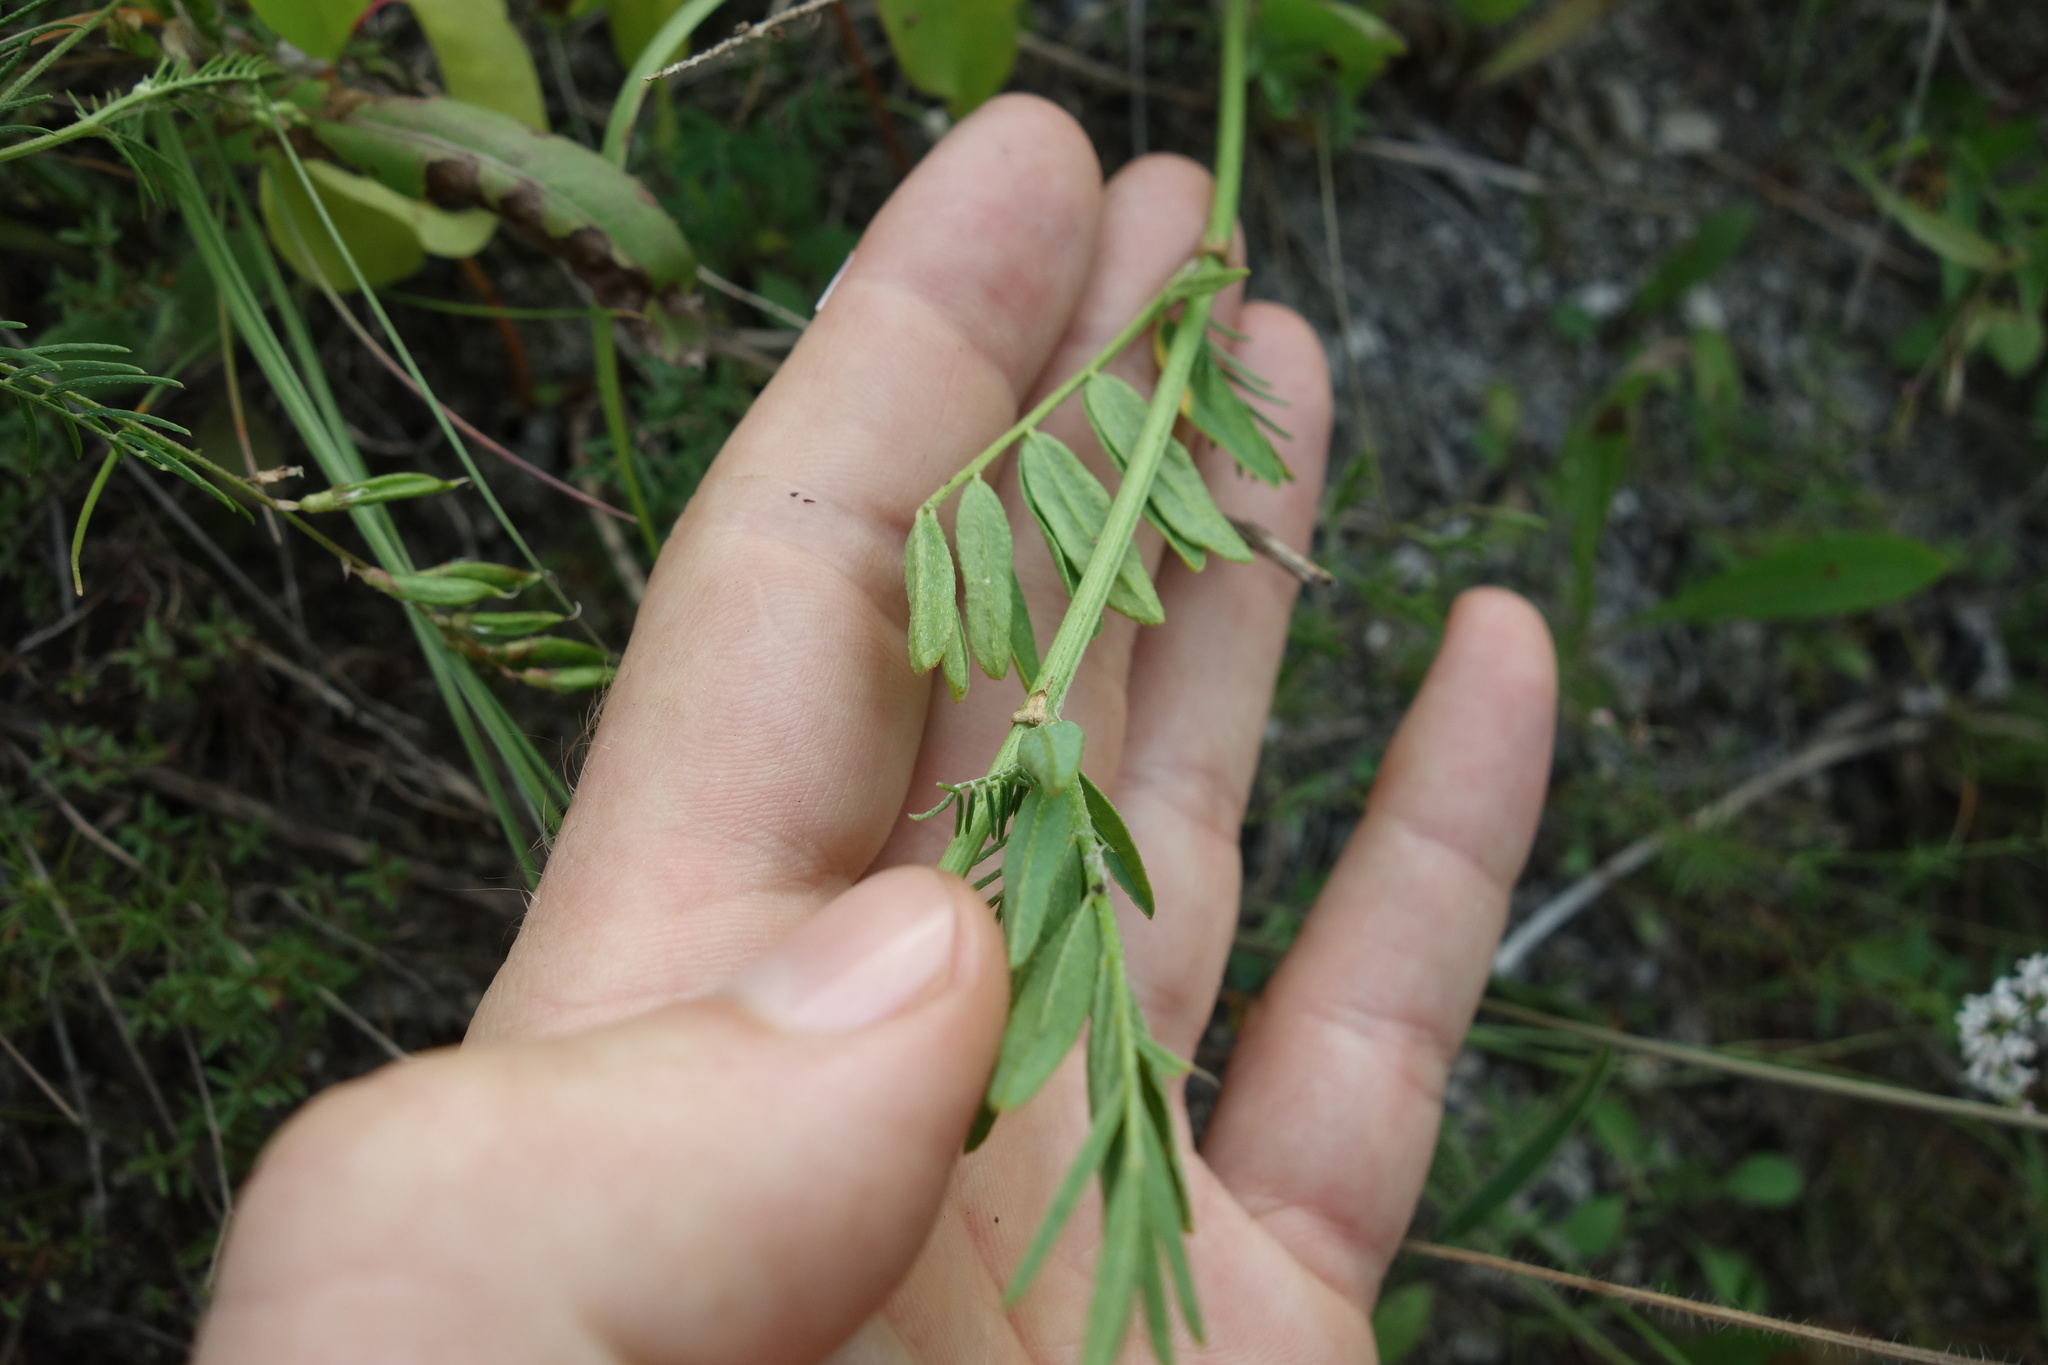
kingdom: Plantae
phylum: Tracheophyta
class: Magnoliopsida
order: Fabales
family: Fabaceae
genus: Astragalus
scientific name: Astragalus sulcatus
